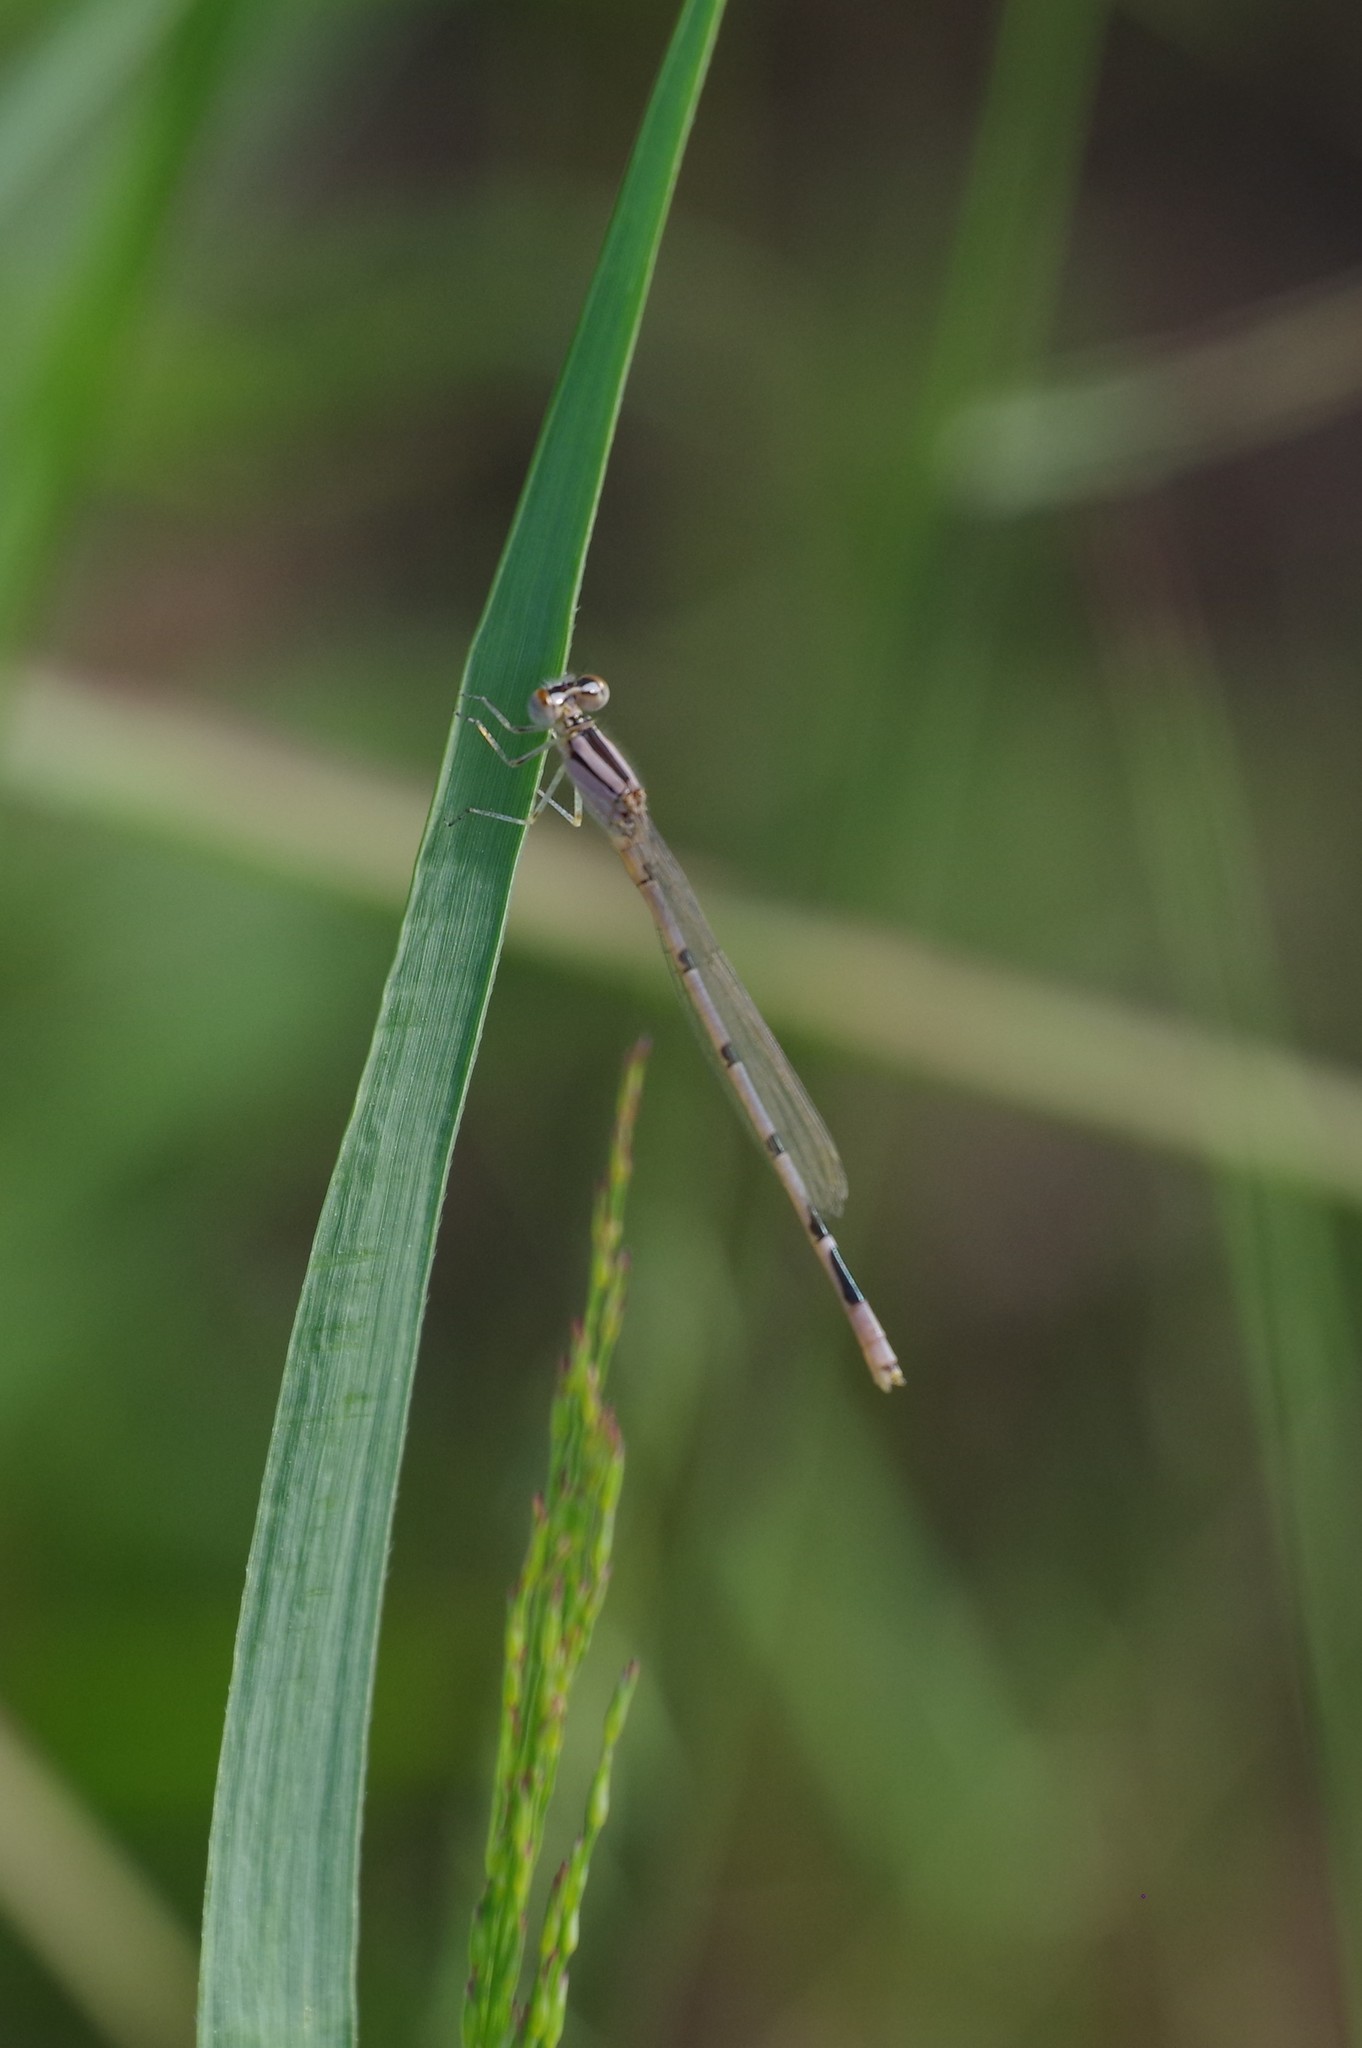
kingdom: Animalia
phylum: Arthropoda
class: Insecta
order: Odonata
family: Coenagrionidae
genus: Enallagma
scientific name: Enallagma civile
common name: Damselfly
